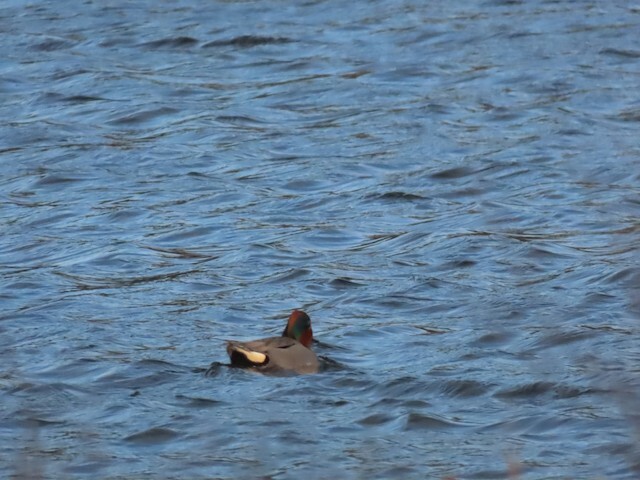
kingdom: Animalia
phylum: Chordata
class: Aves
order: Anseriformes
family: Anatidae
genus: Anas
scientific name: Anas crecca
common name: Eurasian teal
